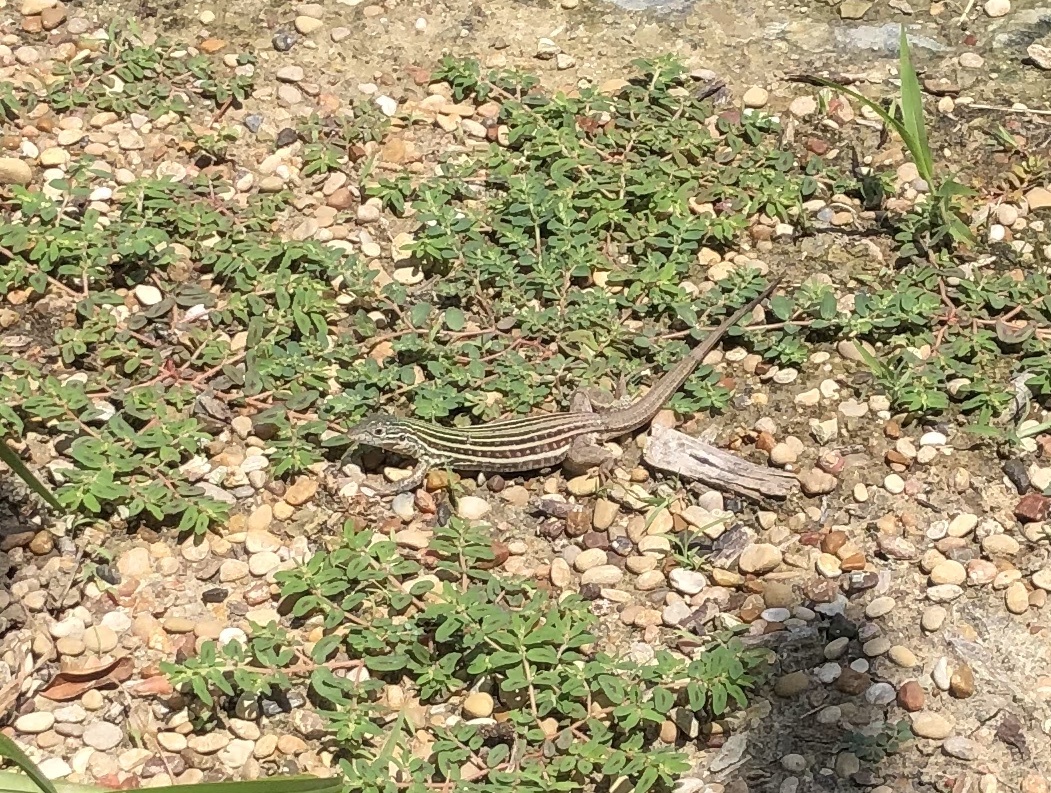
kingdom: Animalia
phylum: Chordata
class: Squamata
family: Teiidae
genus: Aspidoscelis
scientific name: Aspidoscelis gularis
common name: Eastern spotted whiptail
